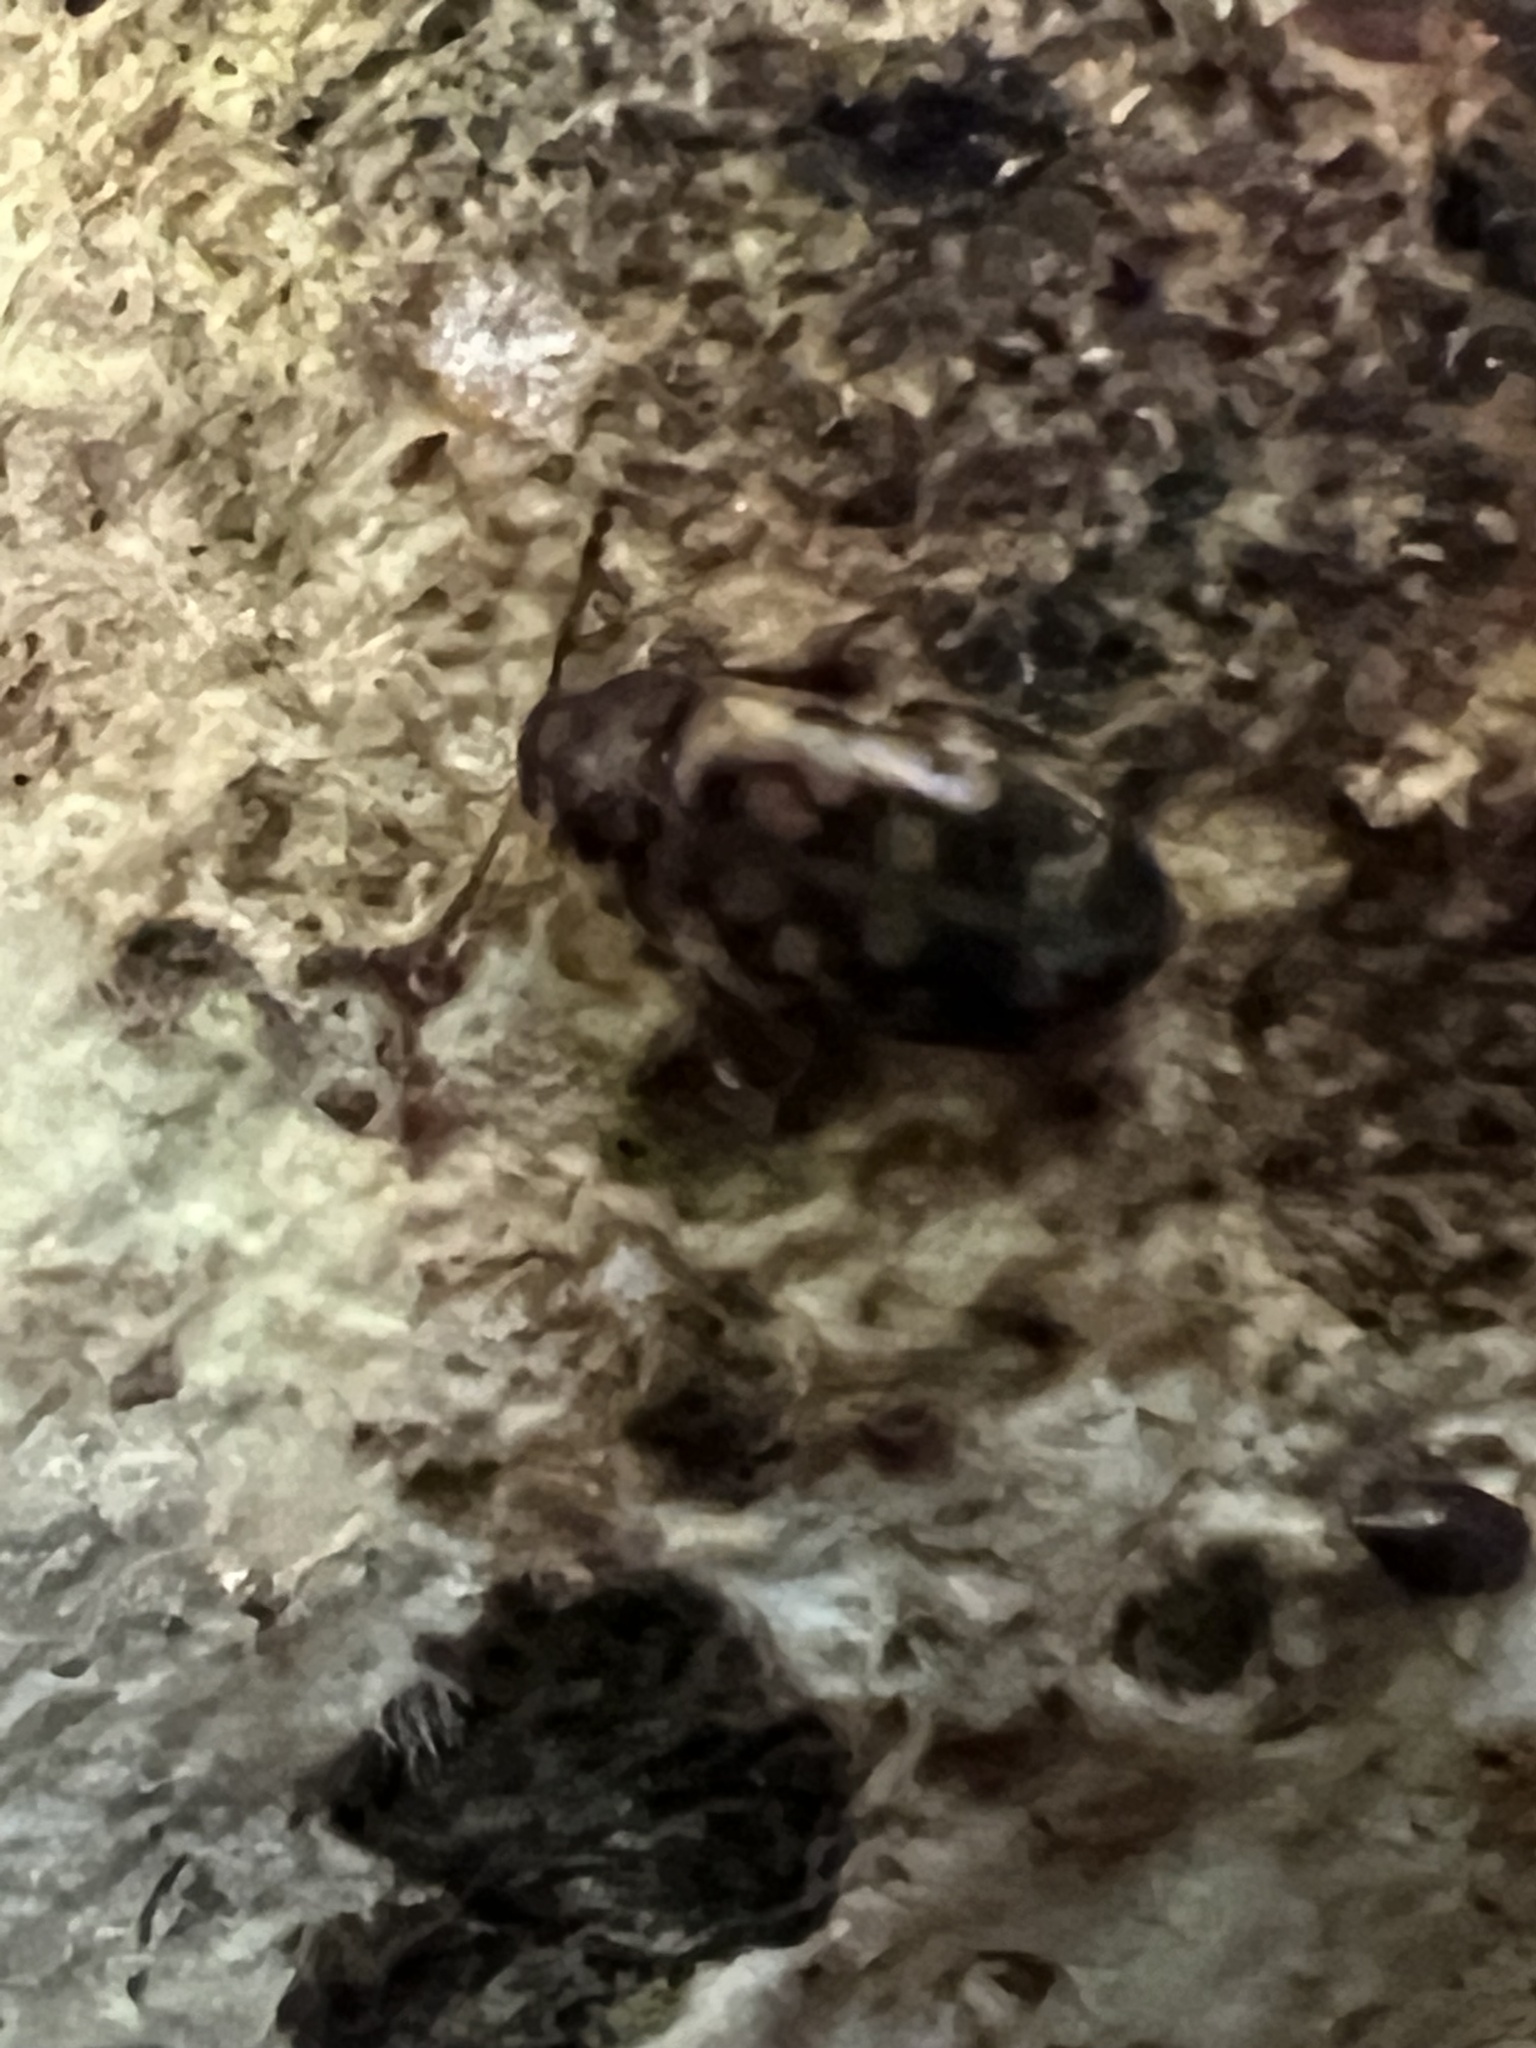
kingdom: Animalia
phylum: Arthropoda
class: Insecta
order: Coleoptera
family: Mycetophagidae
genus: Neotriphyllus
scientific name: Neotriphyllus
